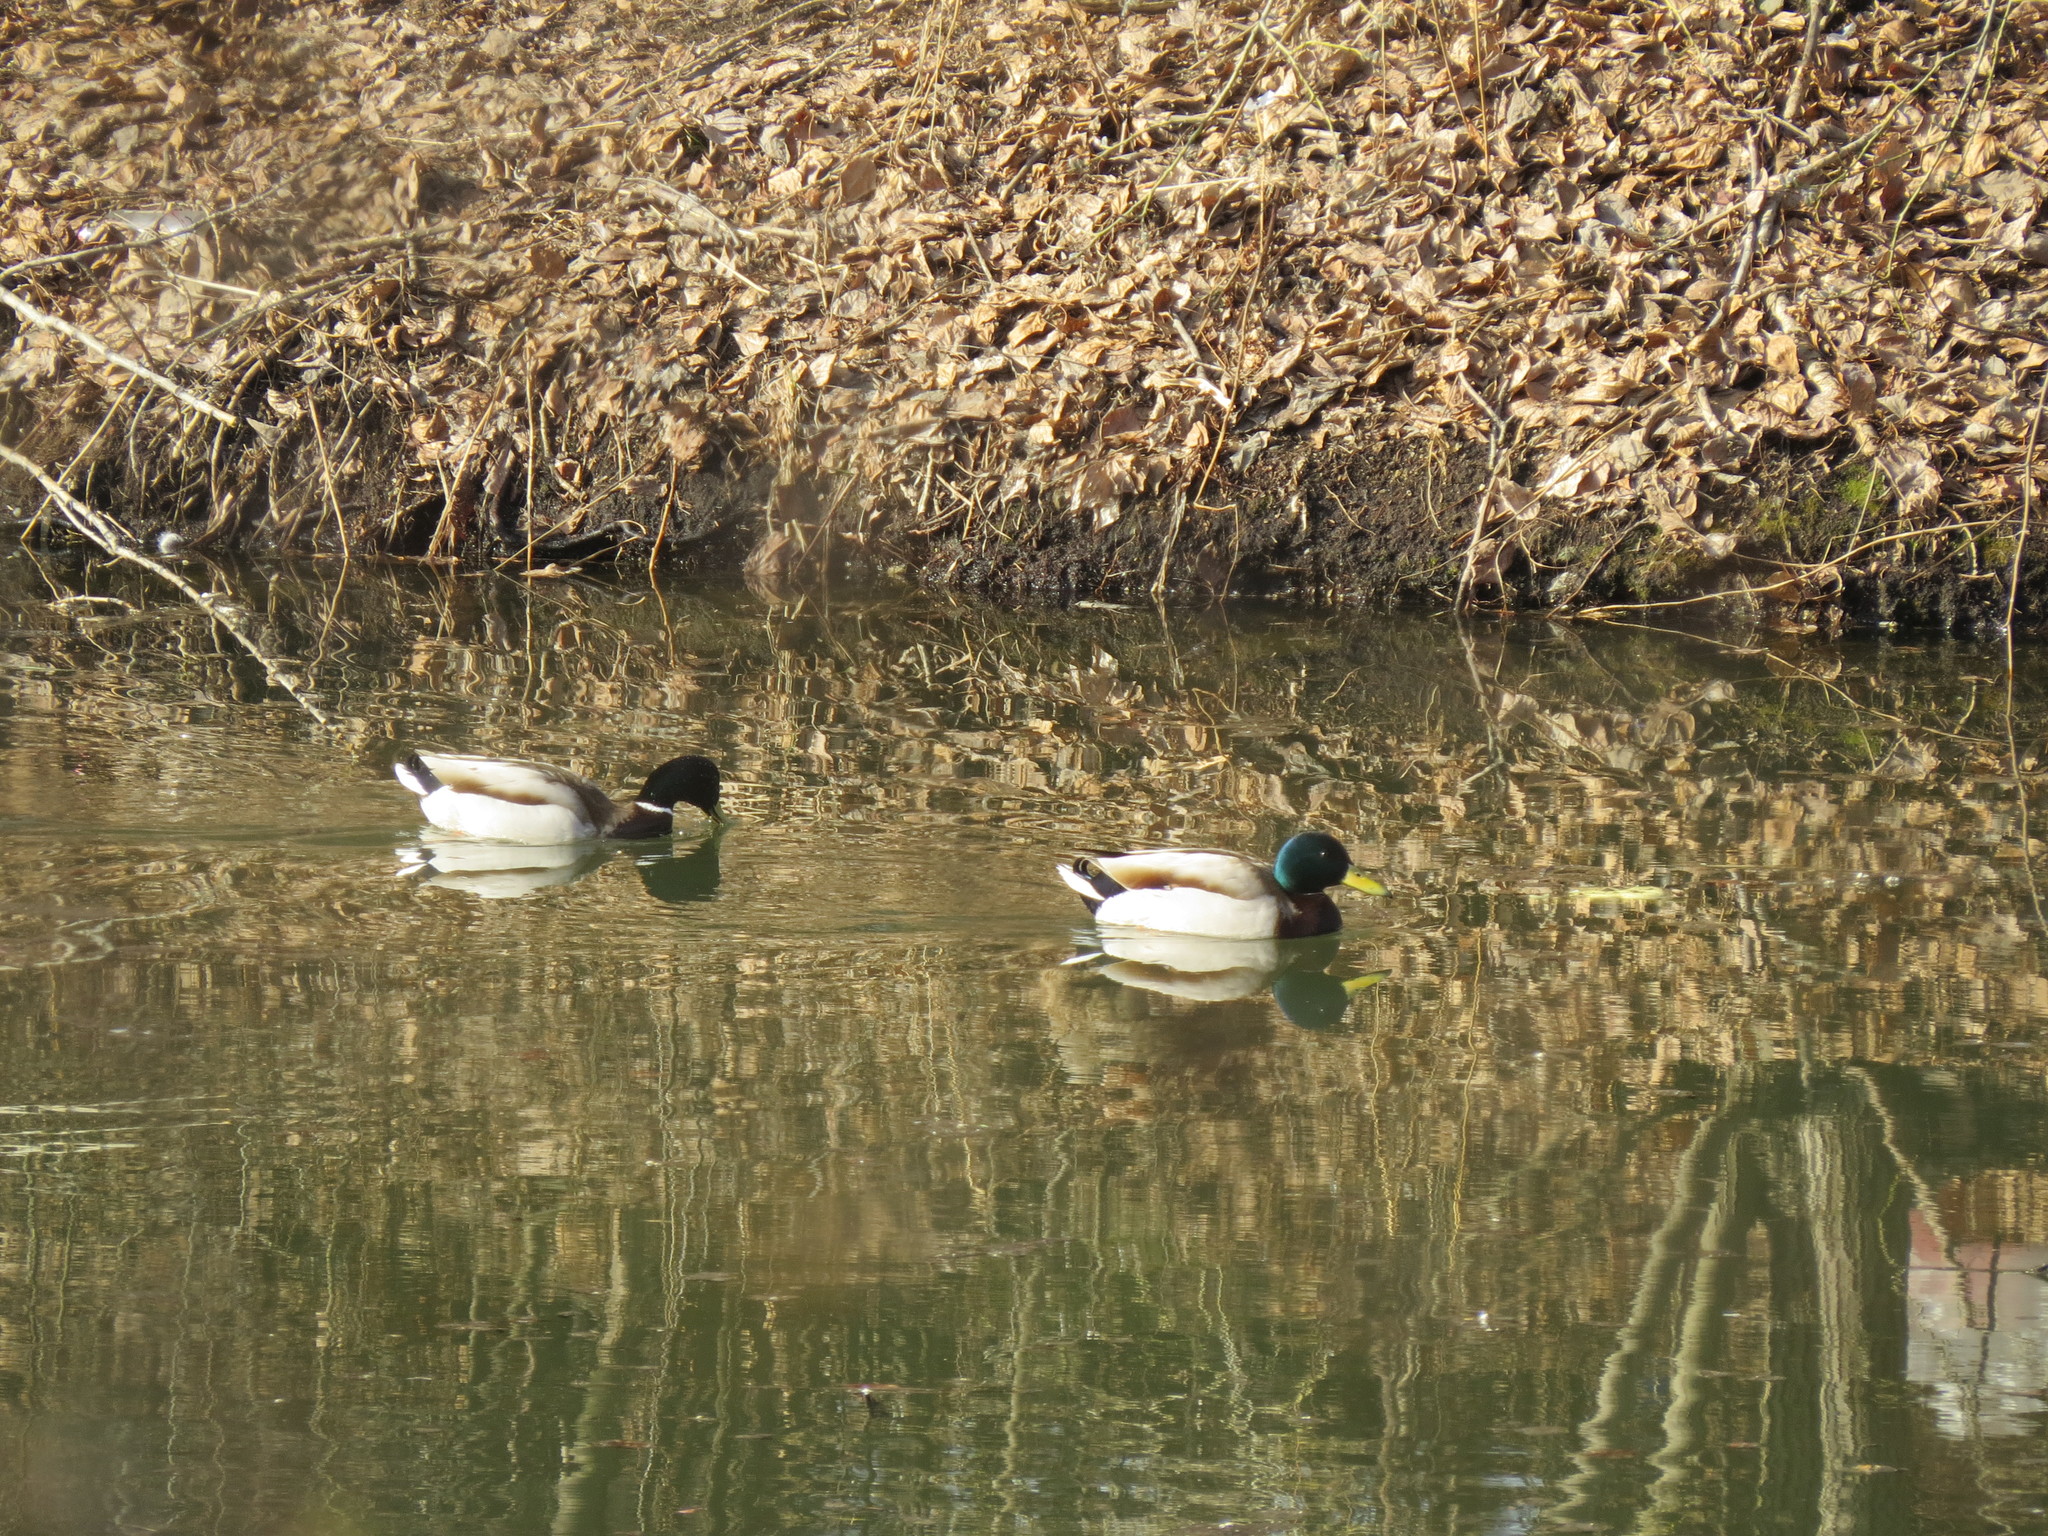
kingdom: Animalia
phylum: Chordata
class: Aves
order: Anseriformes
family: Anatidae
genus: Anas
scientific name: Anas platyrhynchos
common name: Mallard
